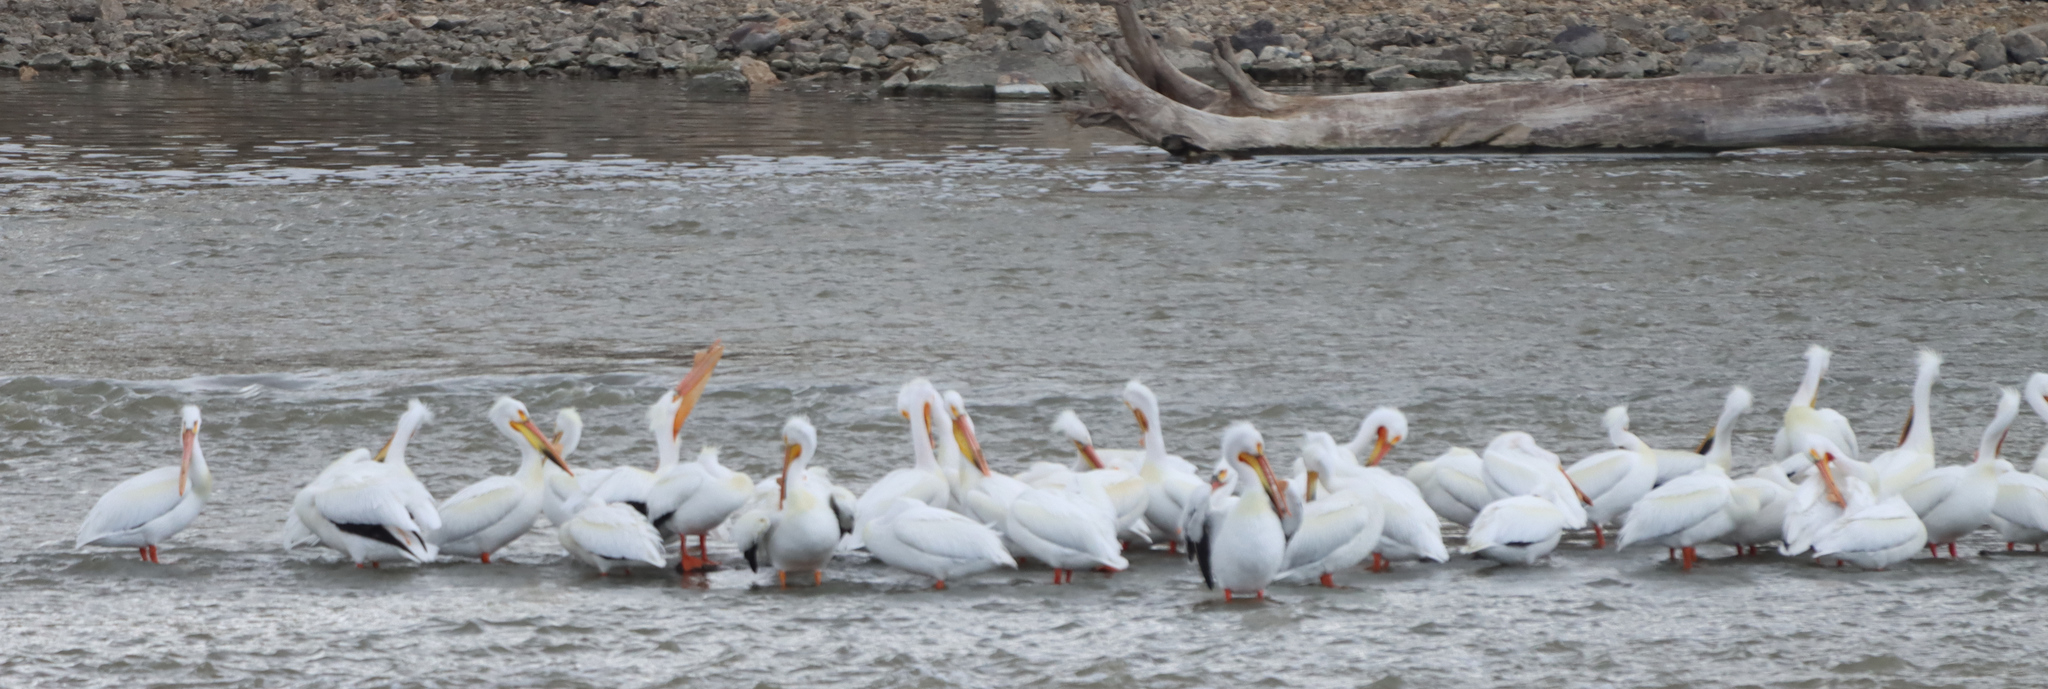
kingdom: Animalia
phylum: Chordata
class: Aves
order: Pelecaniformes
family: Pelecanidae
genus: Pelecanus
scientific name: Pelecanus erythrorhynchos
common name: American white pelican
